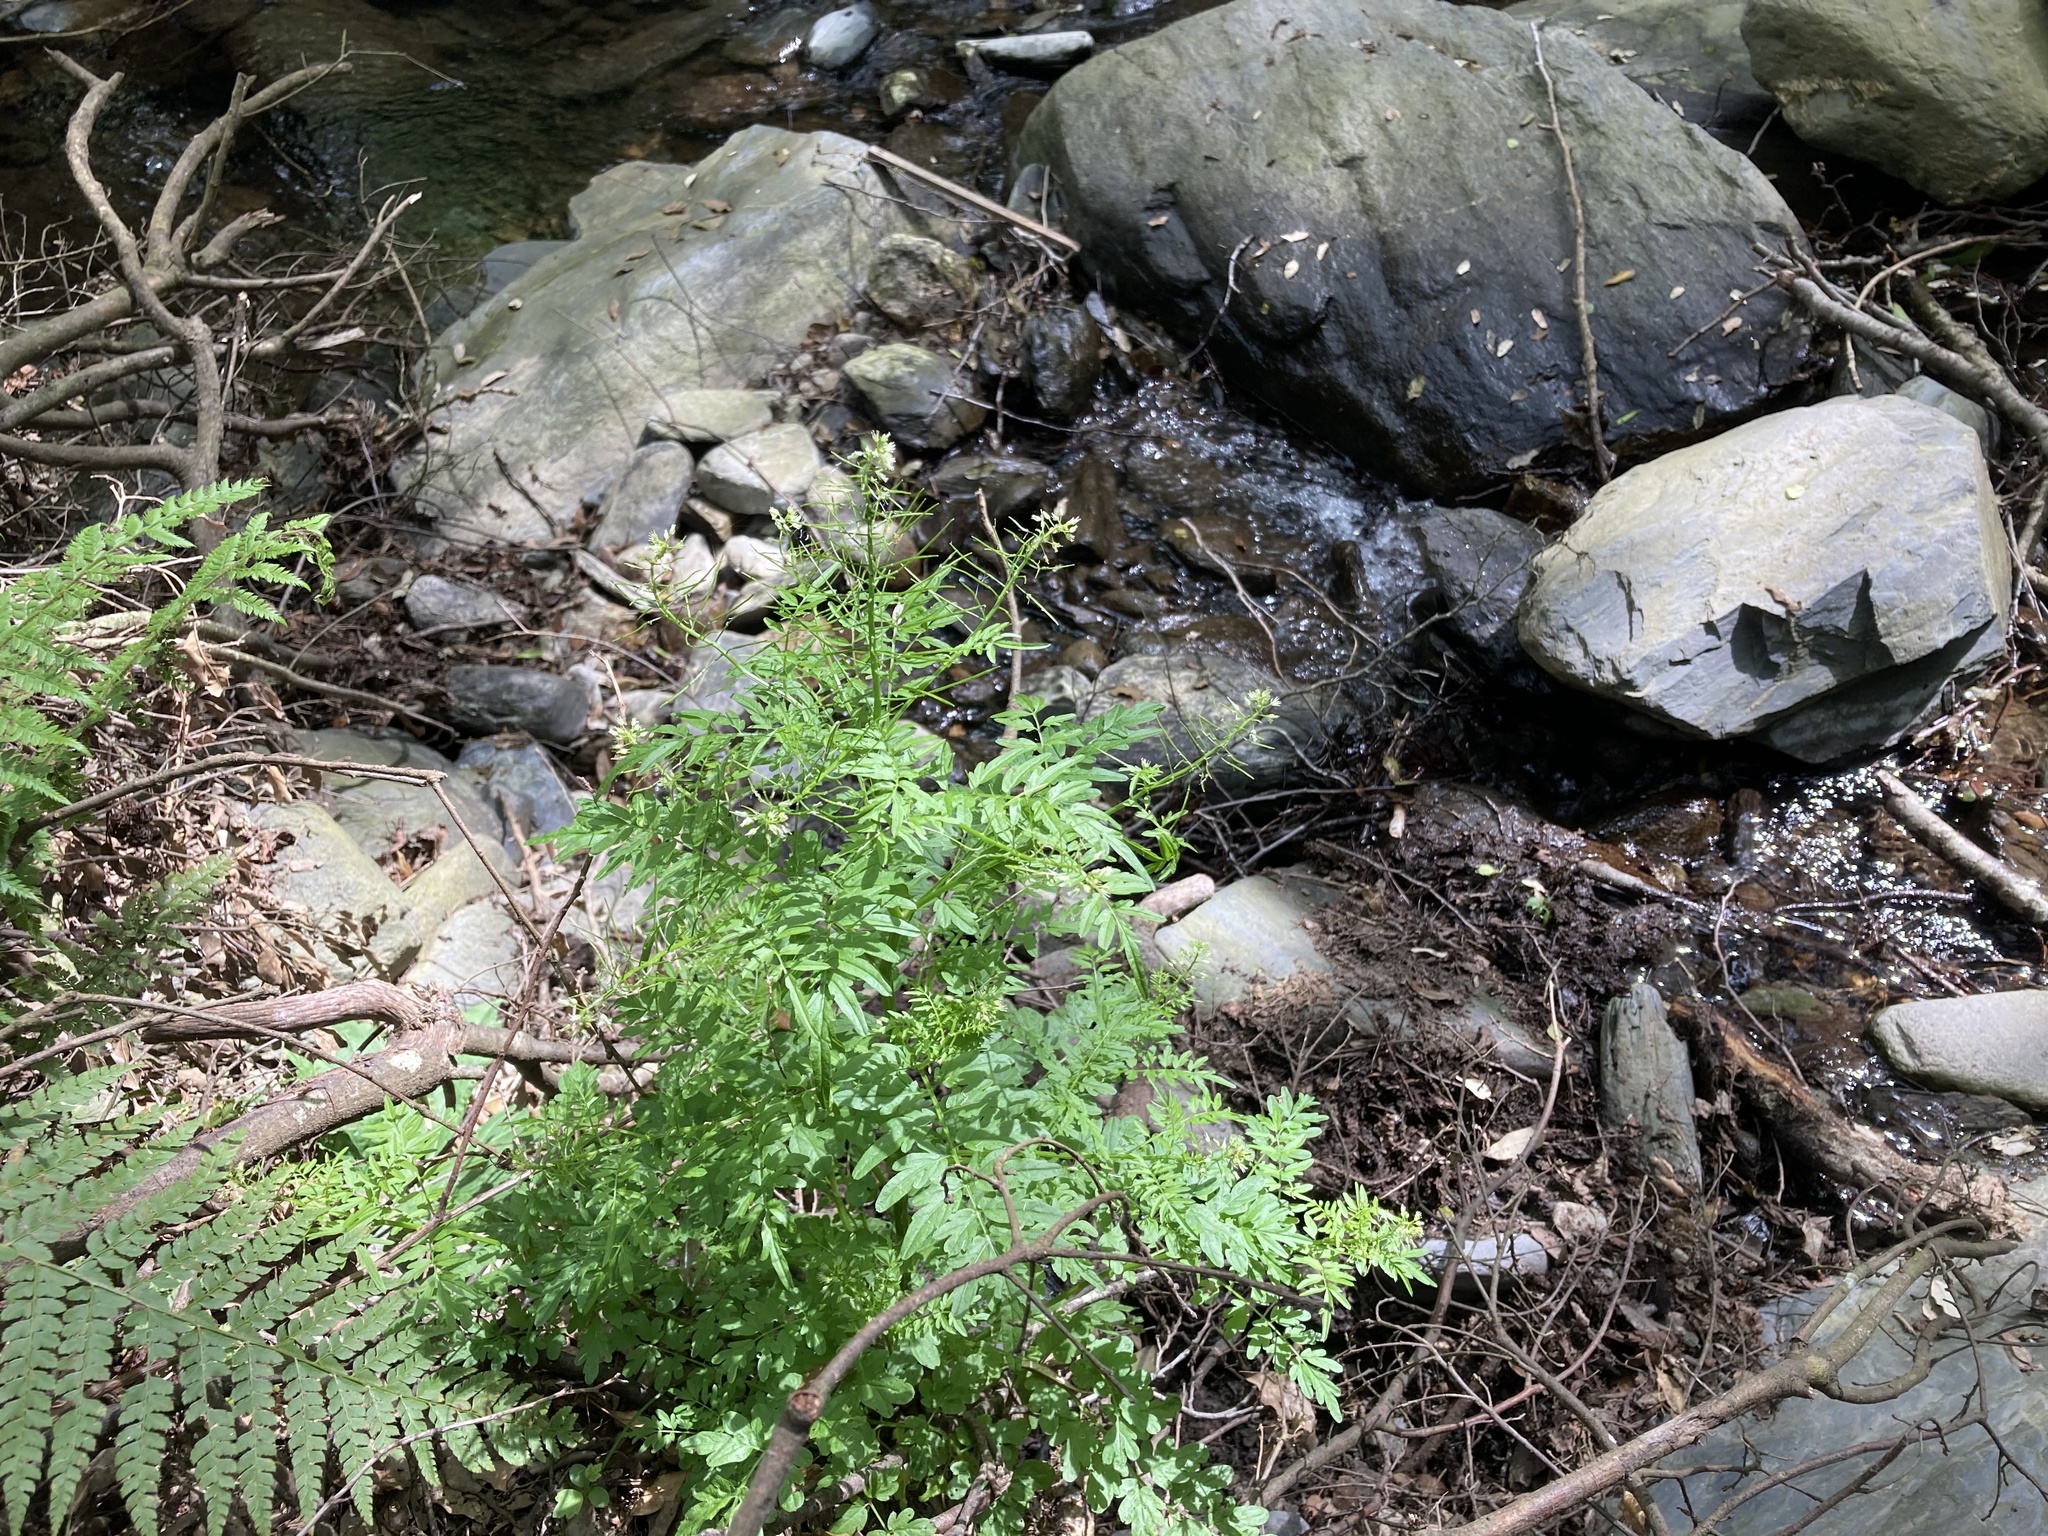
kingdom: Plantae
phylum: Tracheophyta
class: Magnoliopsida
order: Brassicales
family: Brassicaceae
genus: Cardamine
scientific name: Cardamine impatiens
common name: Narrow-leaved bitter-cress
